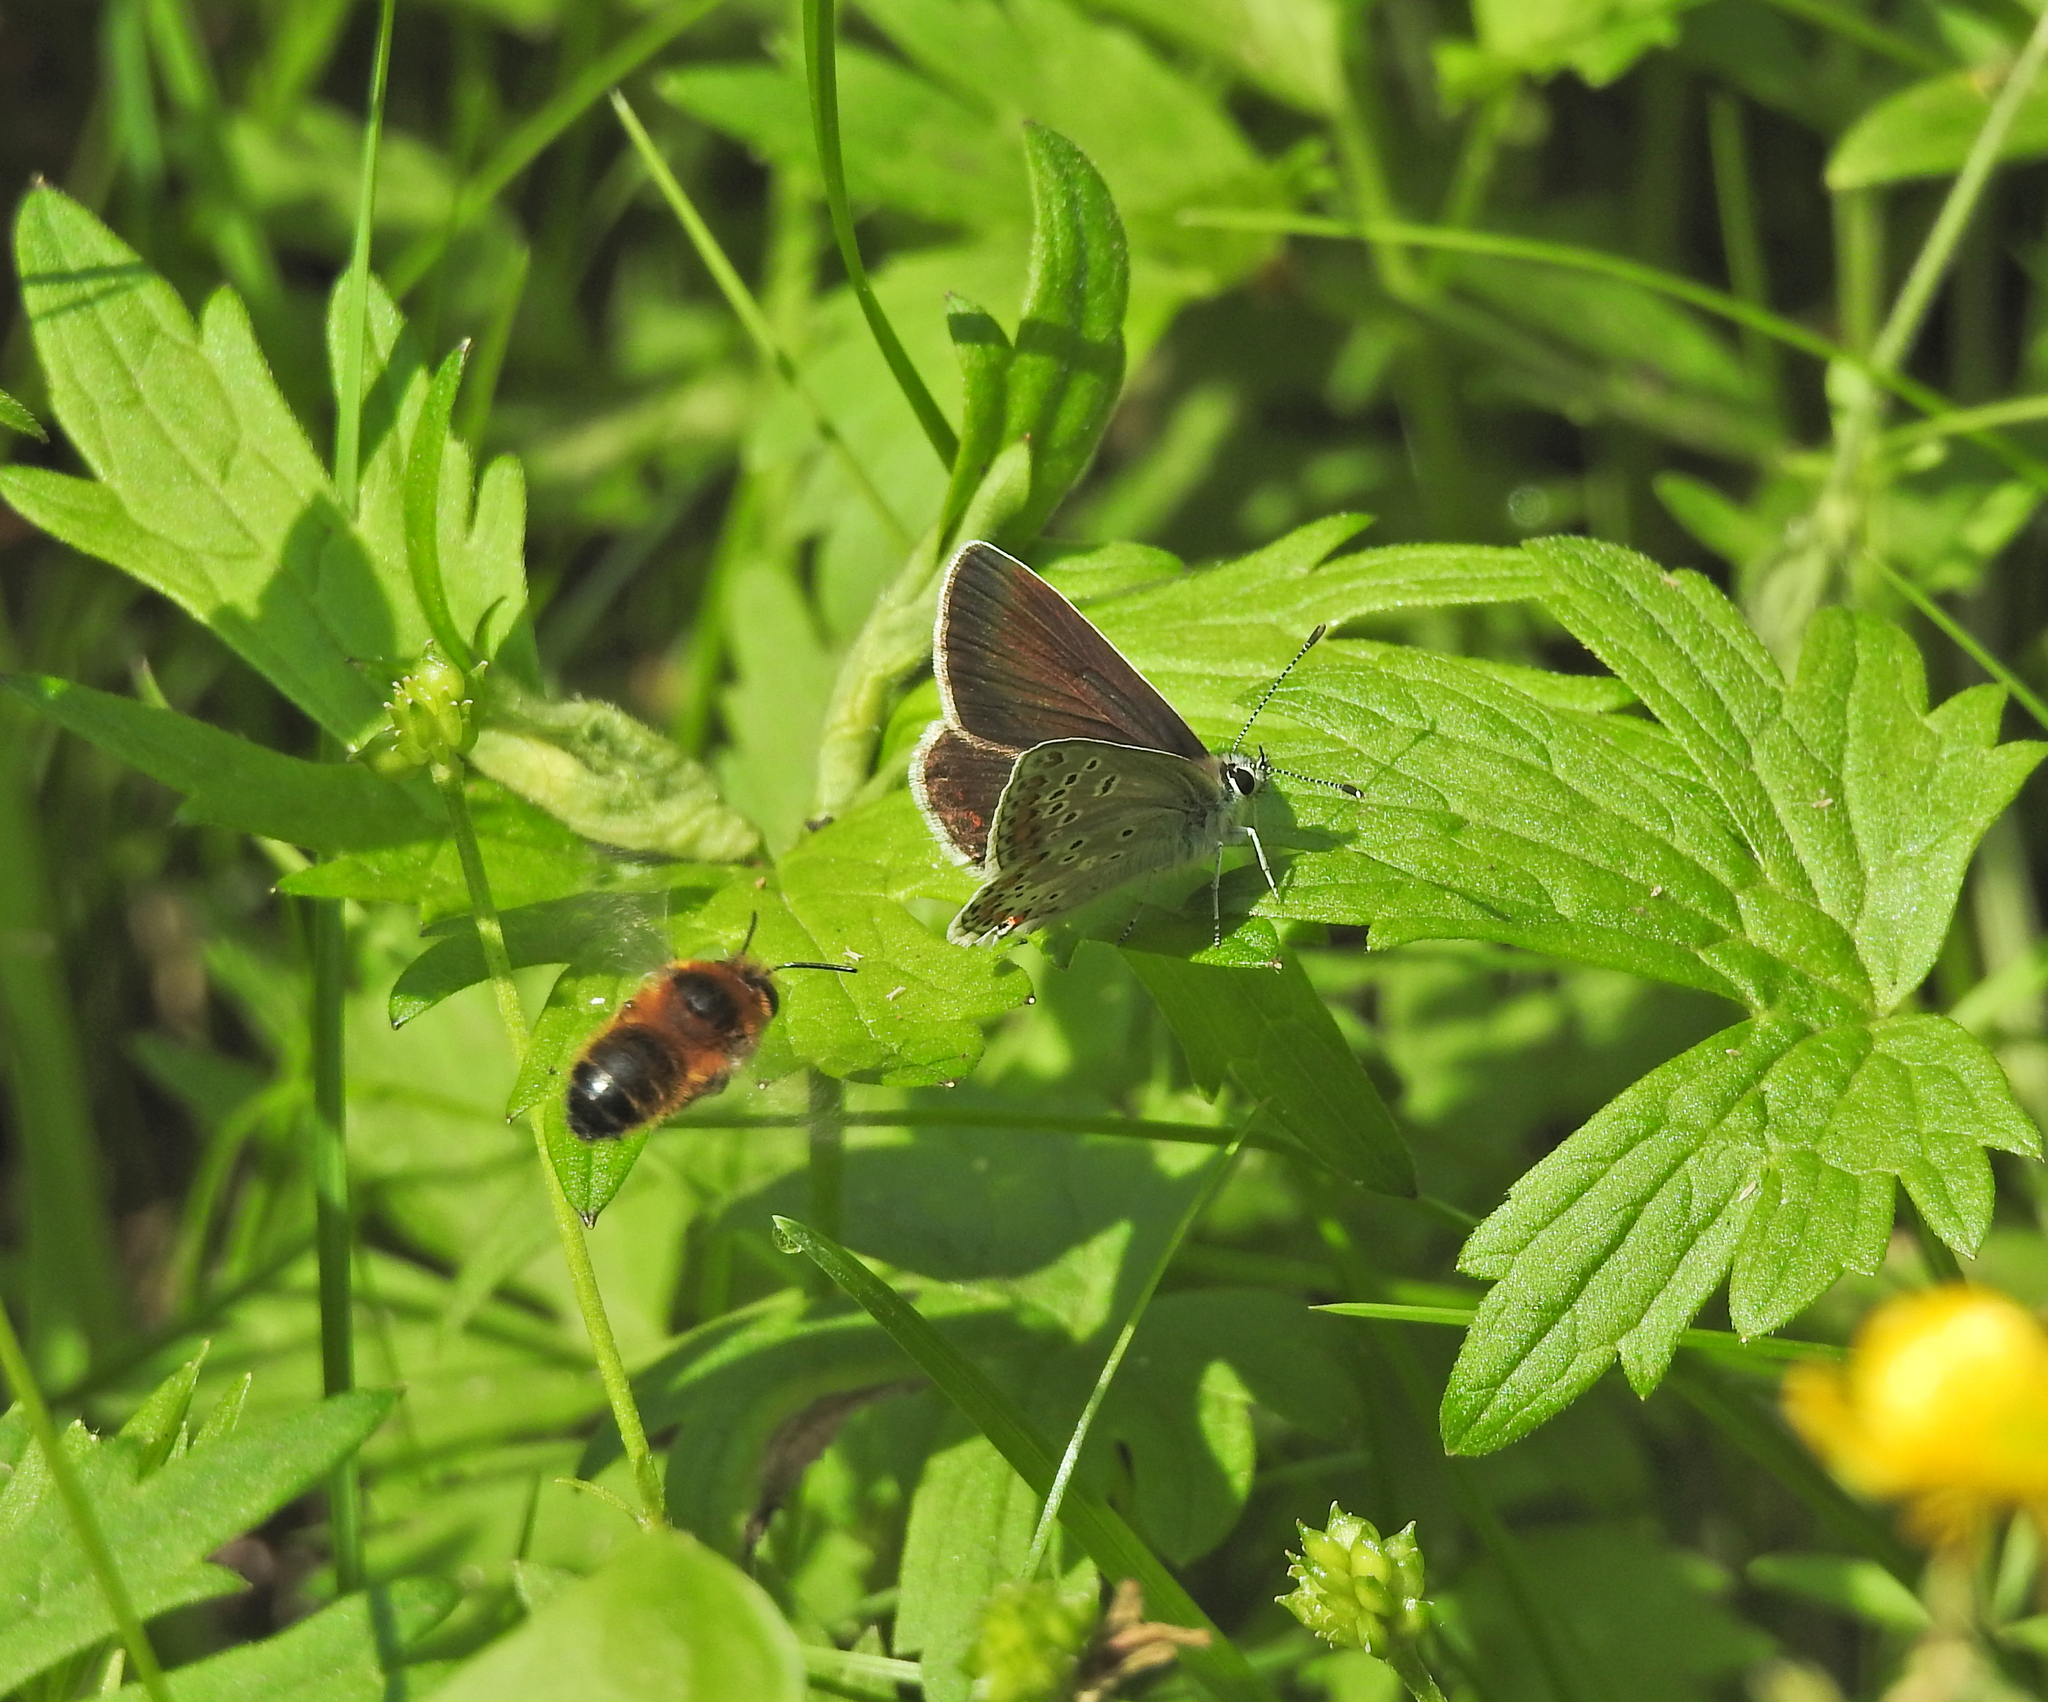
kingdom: Animalia
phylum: Arthropoda
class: Insecta
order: Lepidoptera
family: Lycaenidae
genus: Aricia
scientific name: Aricia artaxerxes
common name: Northern brown argus
